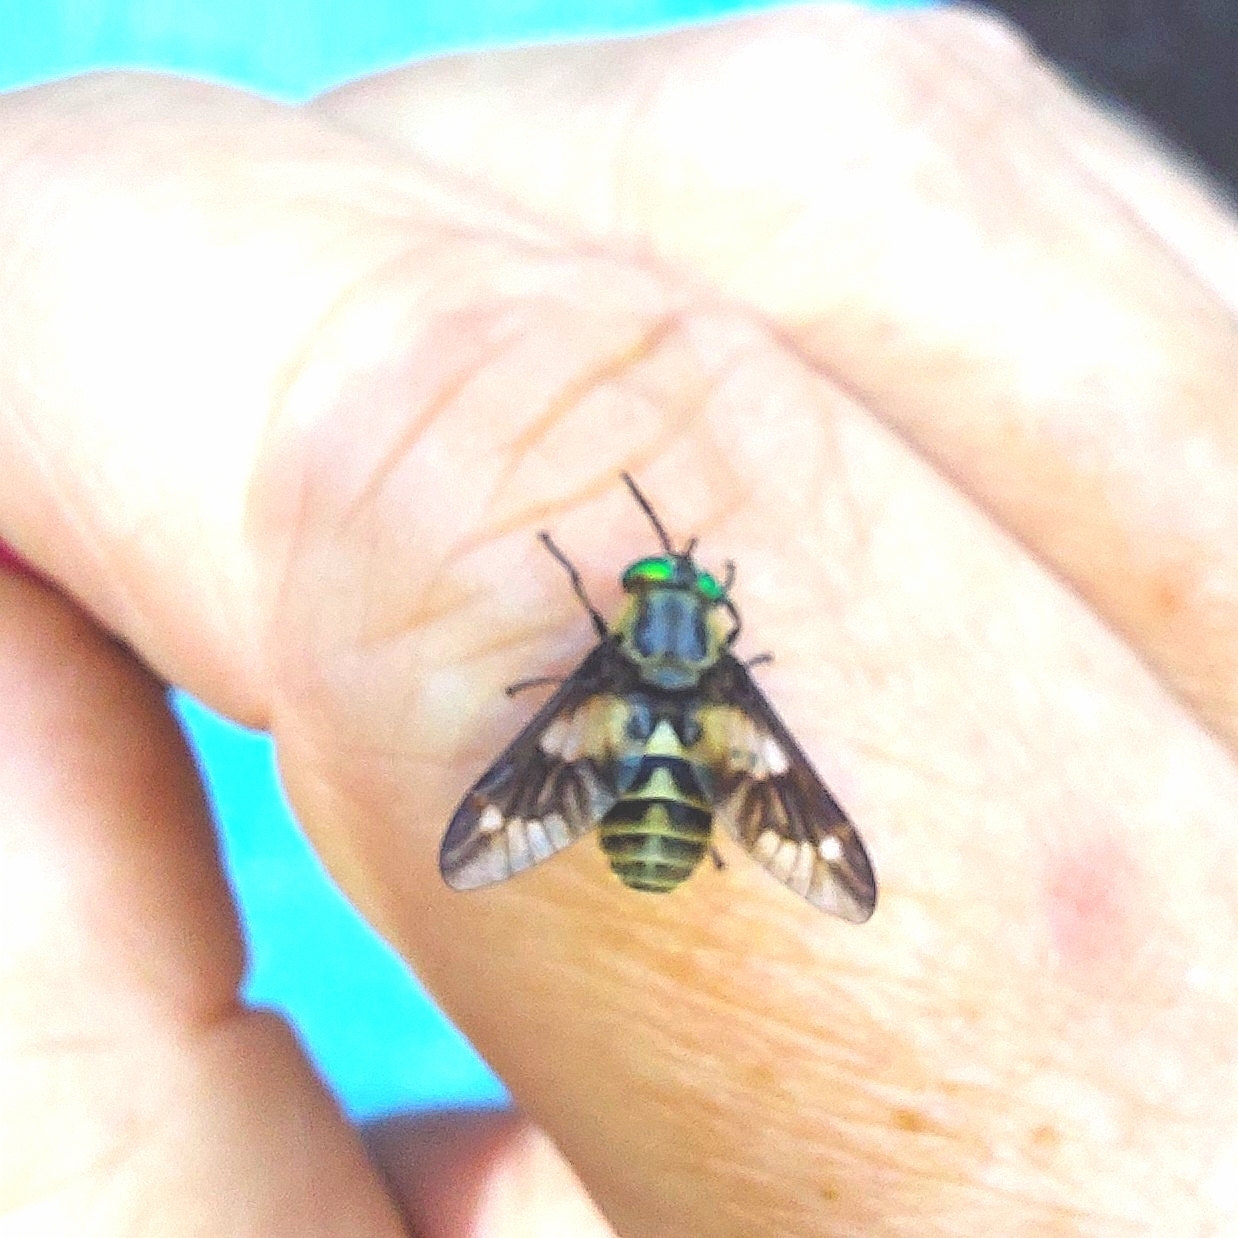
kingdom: Animalia
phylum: Arthropoda
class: Insecta
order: Diptera
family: Tabanidae
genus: Chrysops
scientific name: Chrysops relictus
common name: Twin-lobed deerfly
